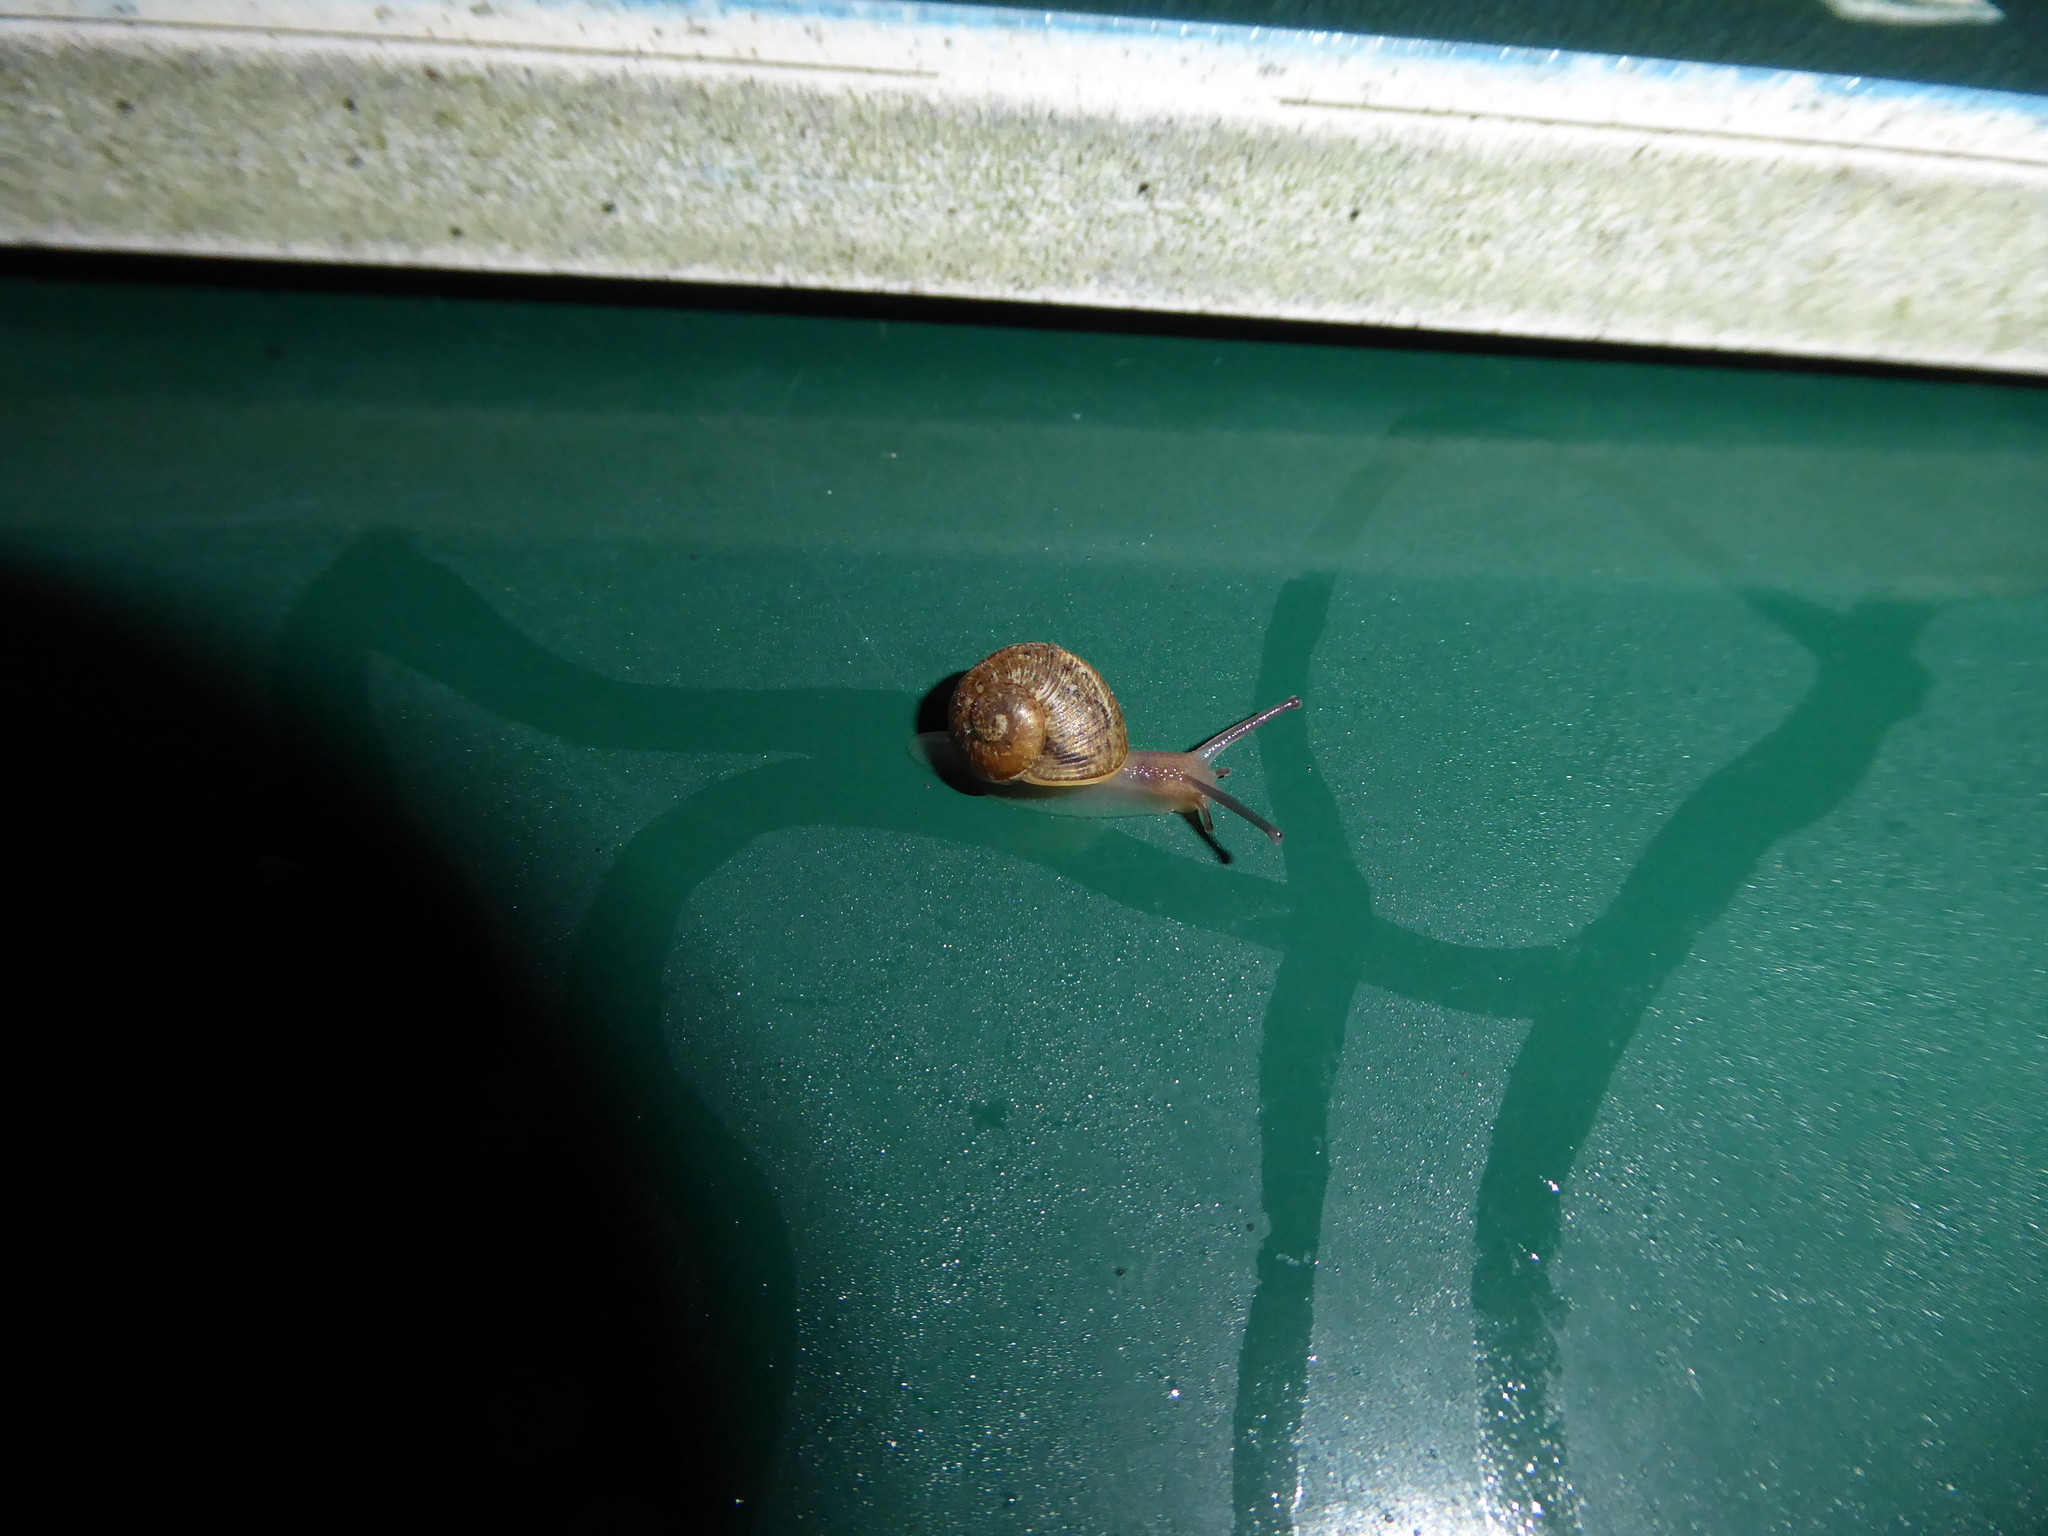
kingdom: Animalia
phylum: Mollusca
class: Gastropoda
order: Stylommatophora
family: Helicidae
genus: Cornu
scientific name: Cornu aspersum
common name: Brown garden snail
